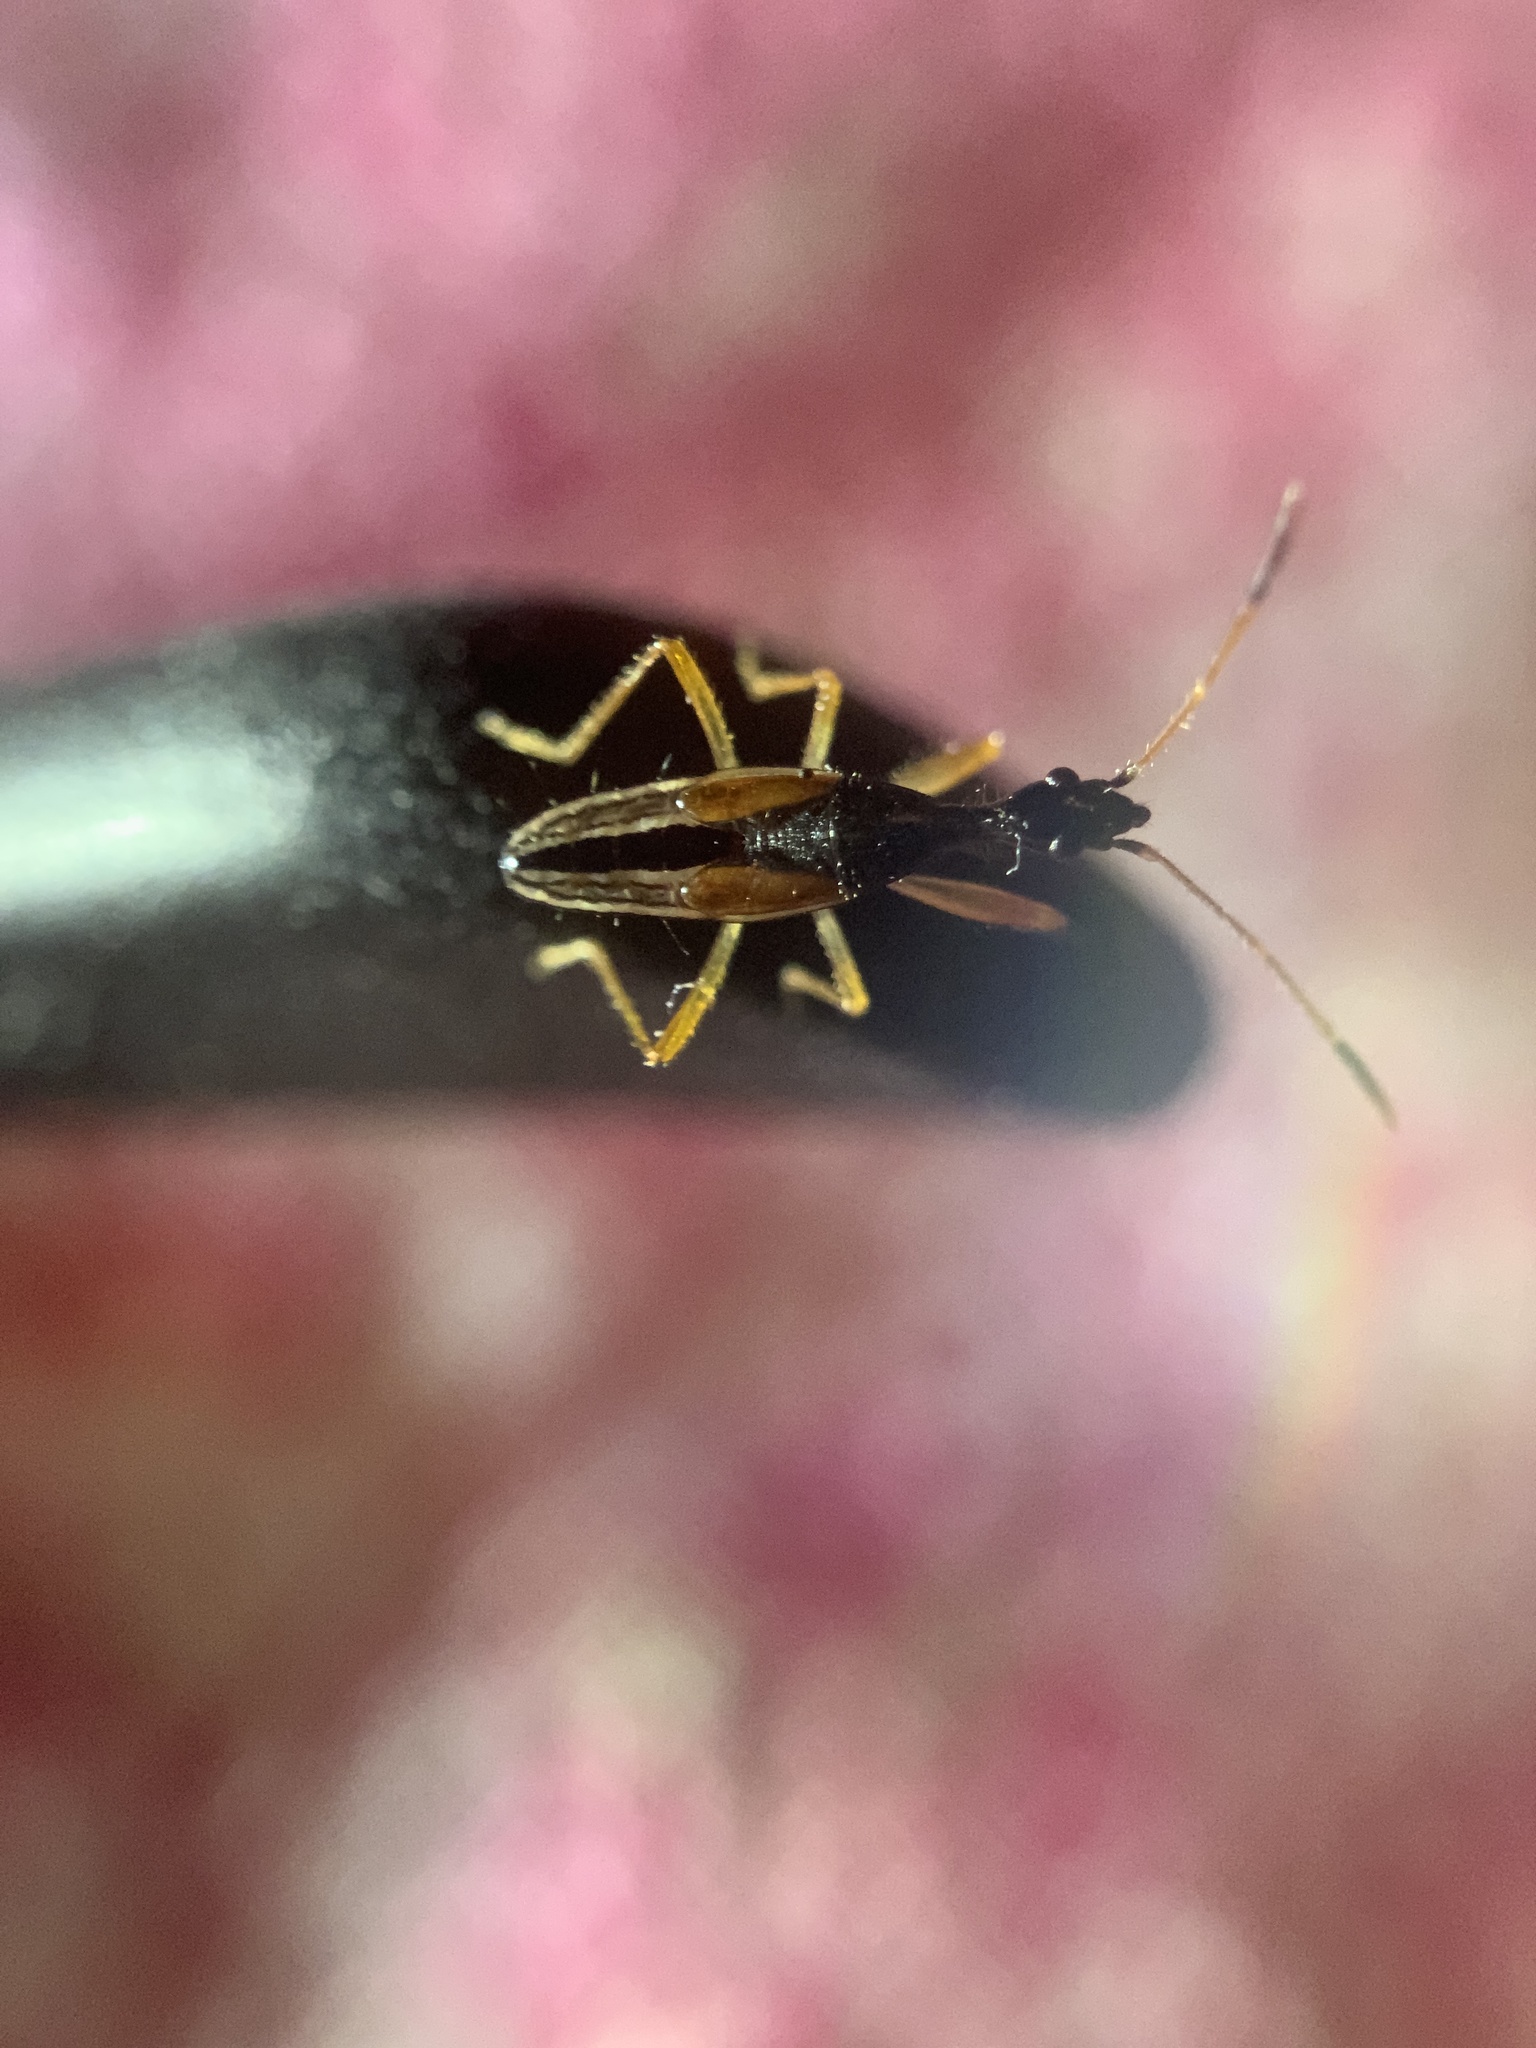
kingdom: Animalia
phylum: Arthropoda
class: Insecta
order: Hemiptera
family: Rhyparochromidae
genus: Myodocha
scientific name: Myodocha serripes
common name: Long-necked seed bug
